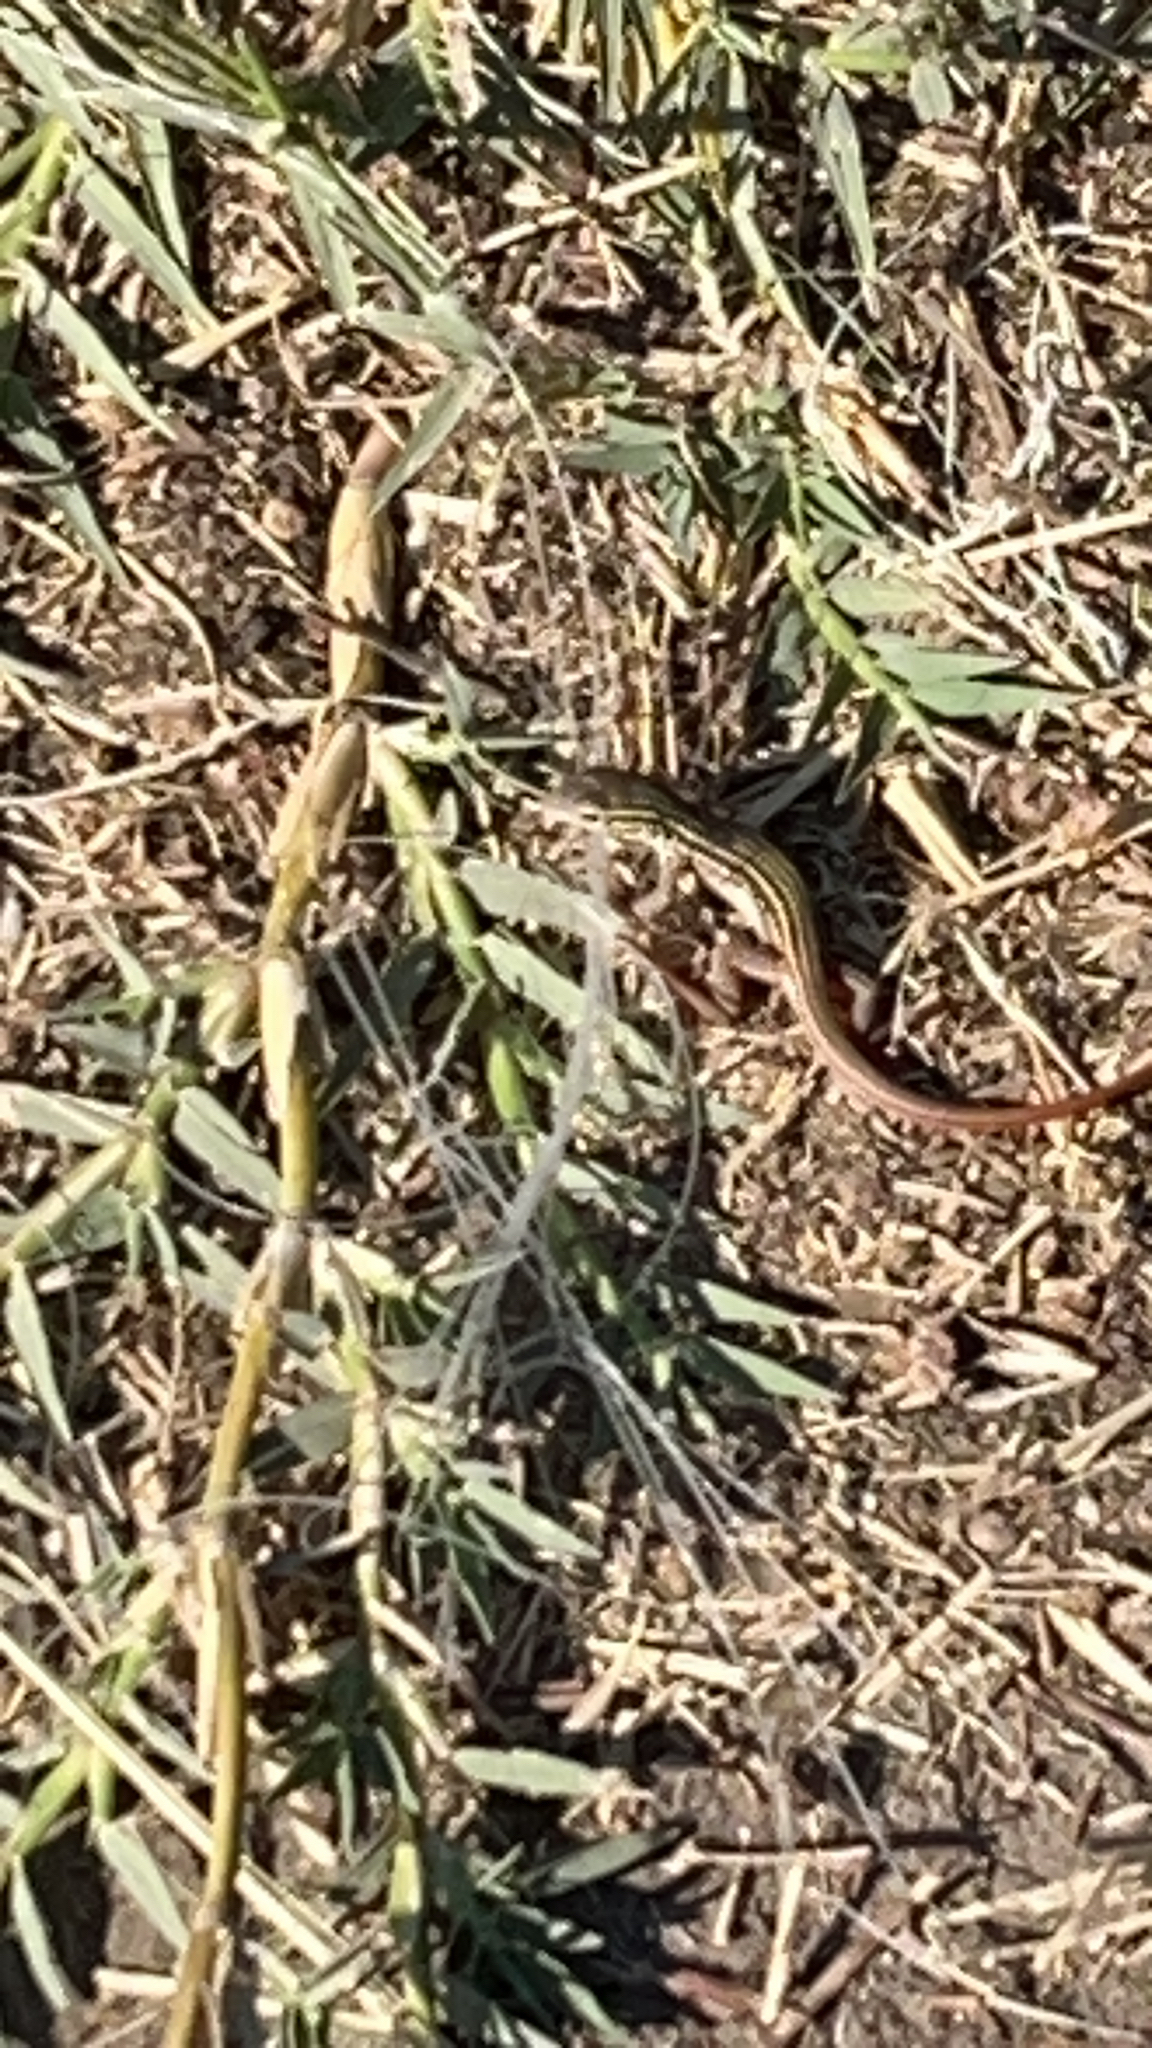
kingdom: Animalia
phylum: Chordata
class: Squamata
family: Teiidae
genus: Aspidoscelis
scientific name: Aspidoscelis gularis
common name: Eastern spotted whiptail
